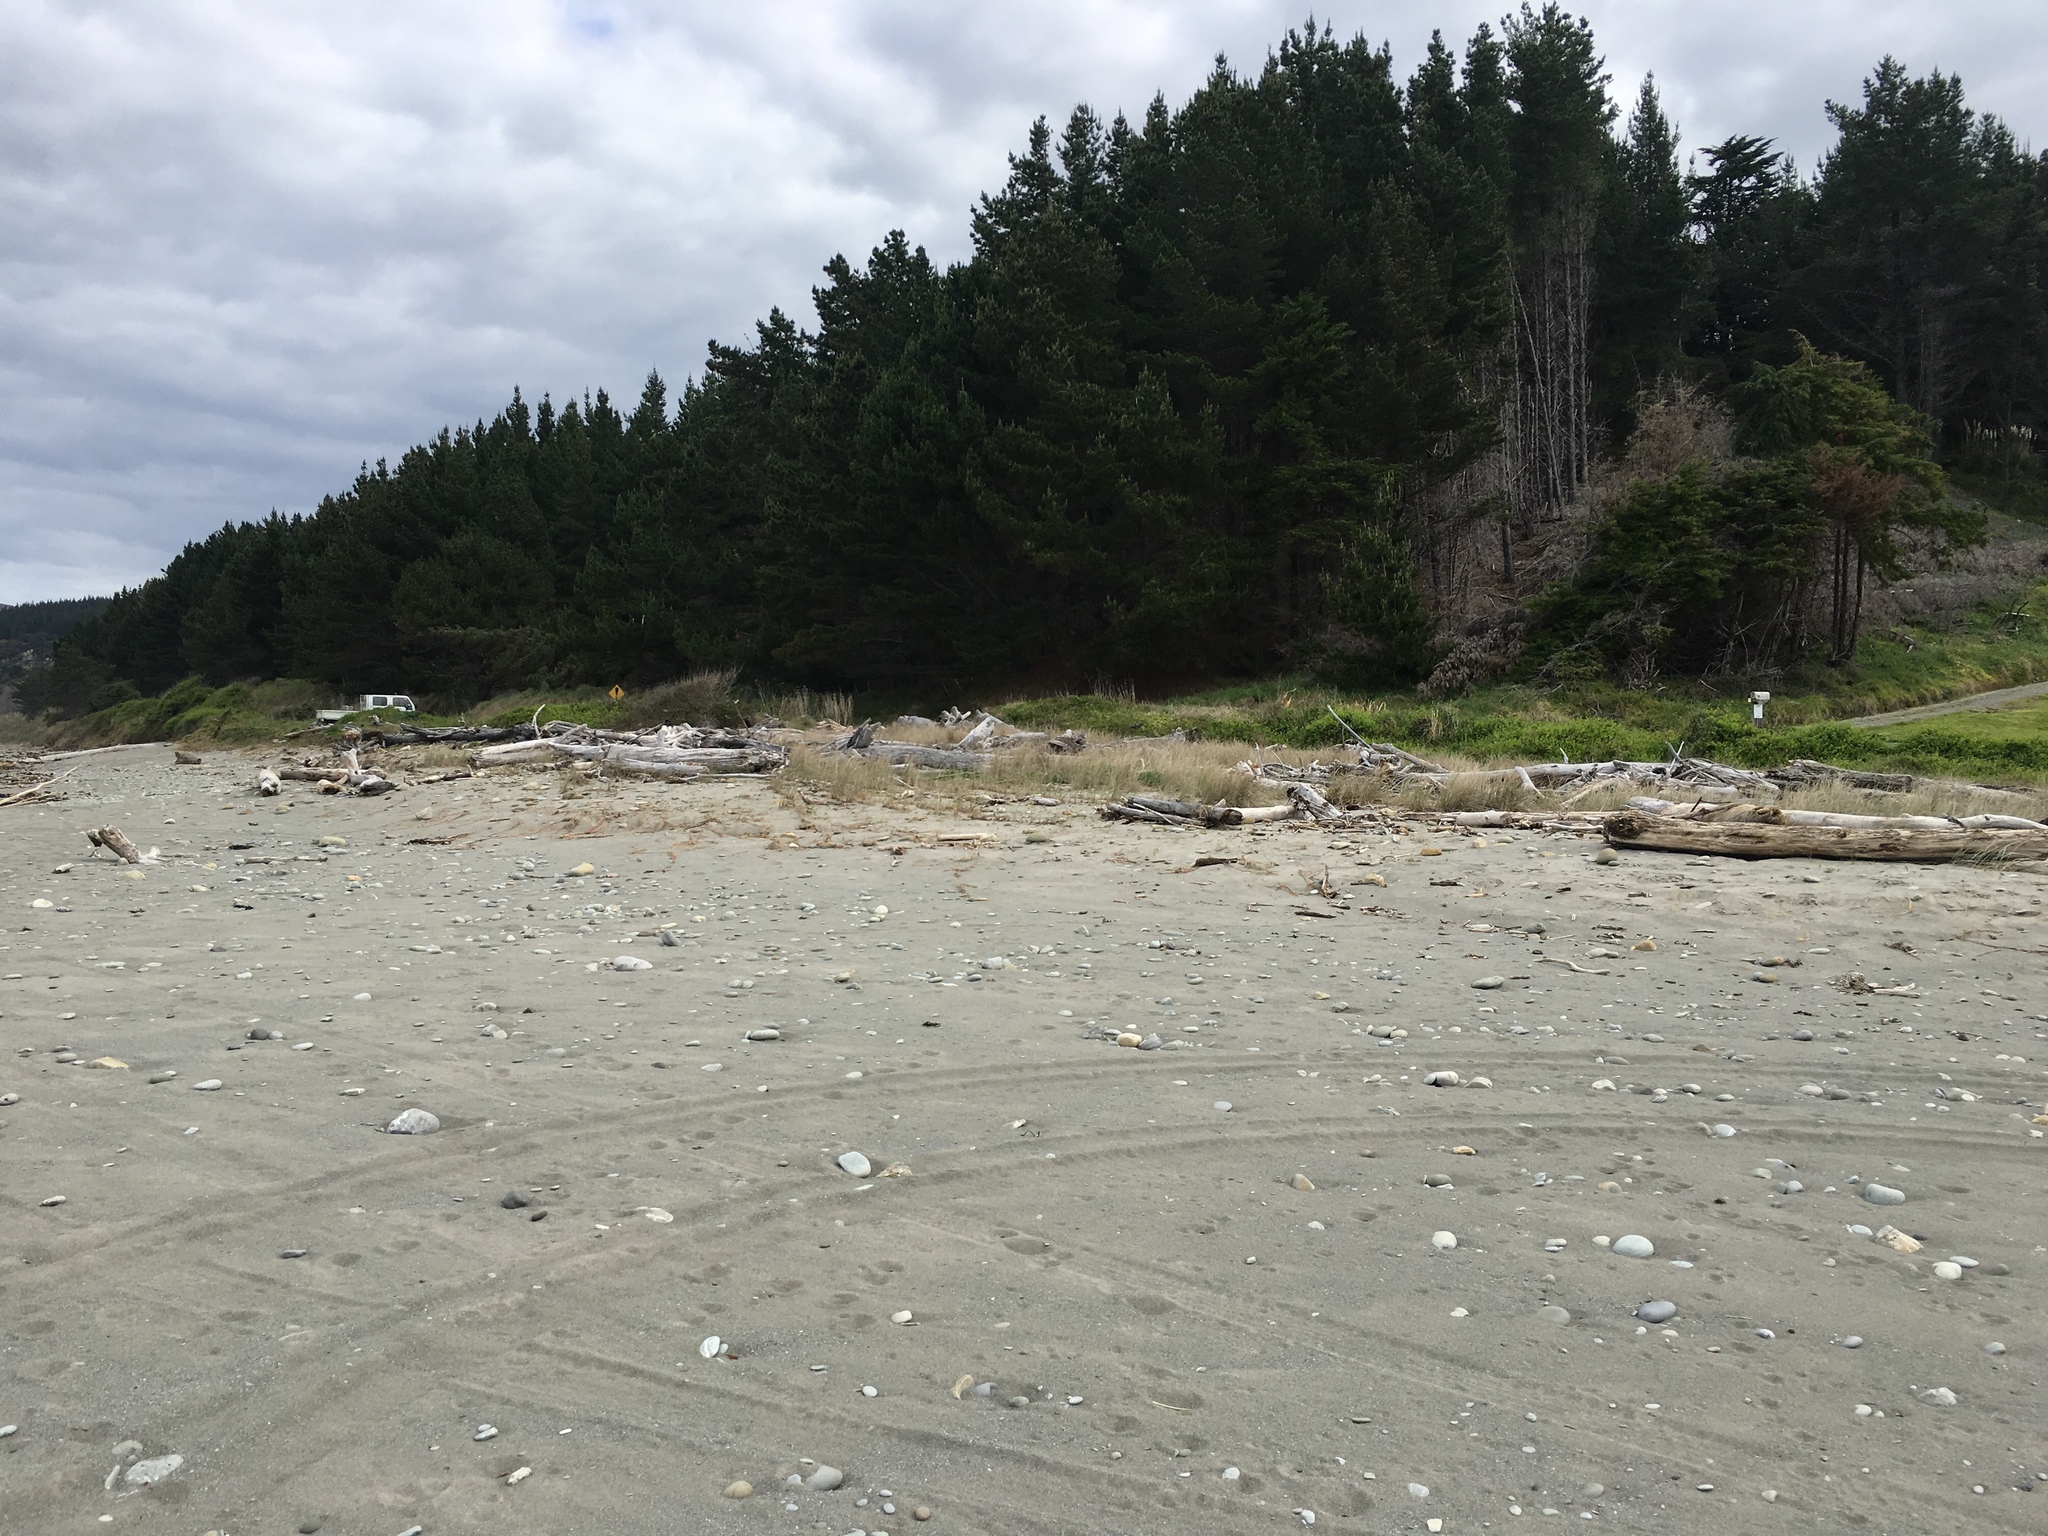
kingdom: Plantae
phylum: Tracheophyta
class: Liliopsida
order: Poales
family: Poaceae
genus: Spinifex
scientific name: Spinifex sericeus
